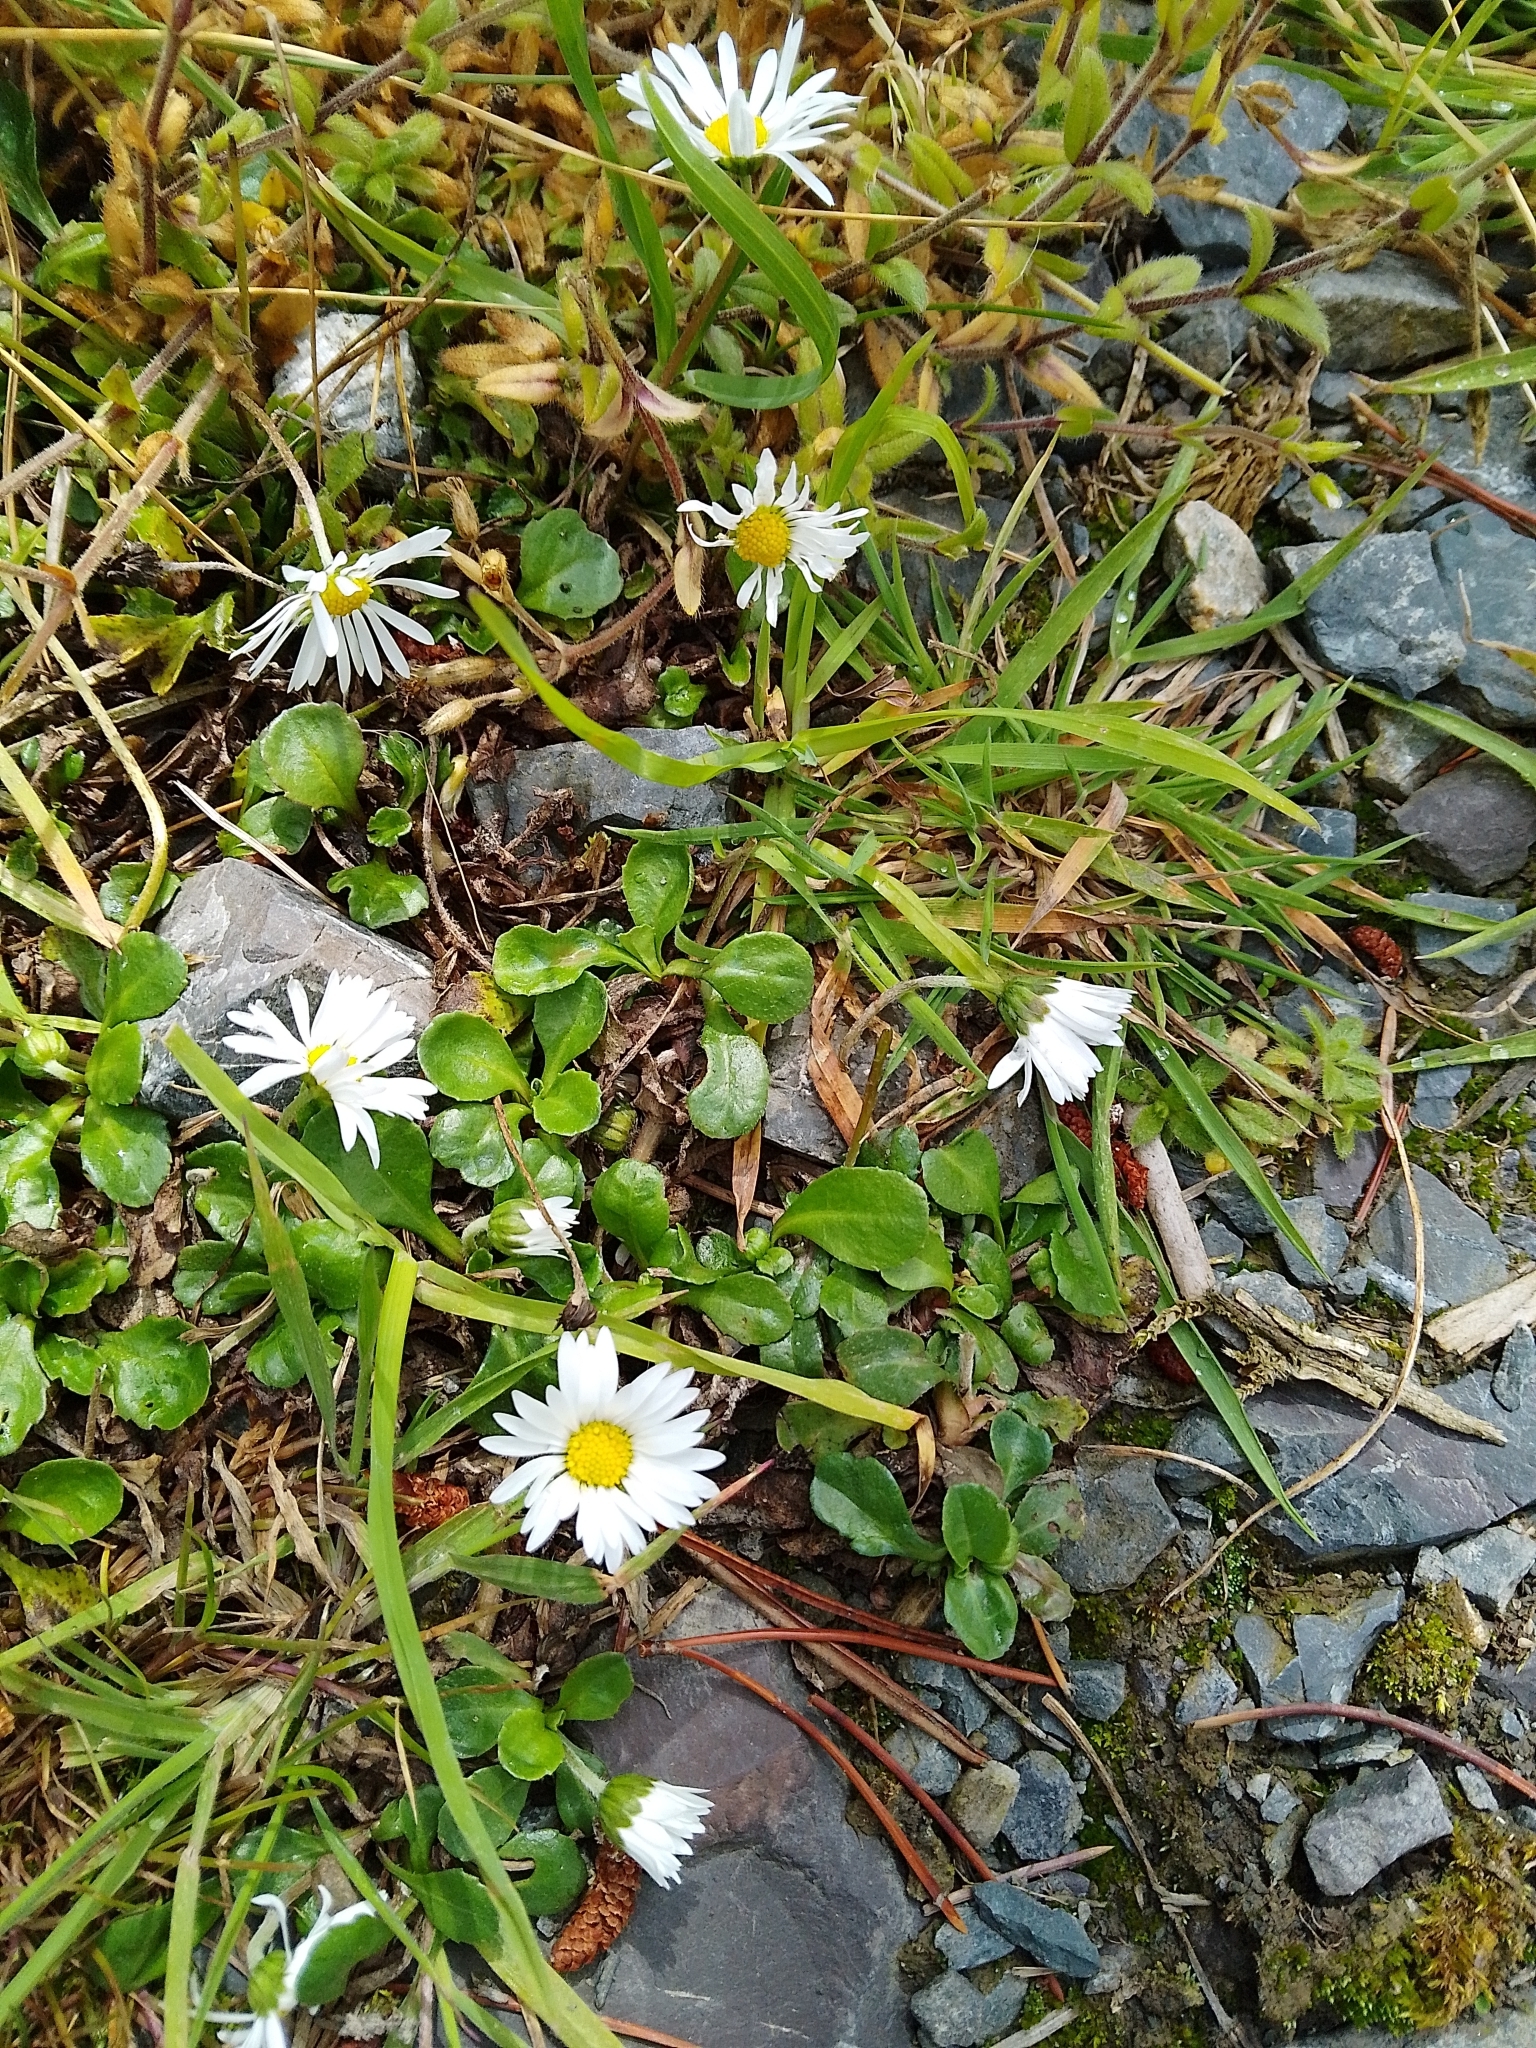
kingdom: Plantae
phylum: Tracheophyta
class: Magnoliopsida
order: Asterales
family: Asteraceae
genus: Bellis
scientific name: Bellis perennis
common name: Lawndaisy
